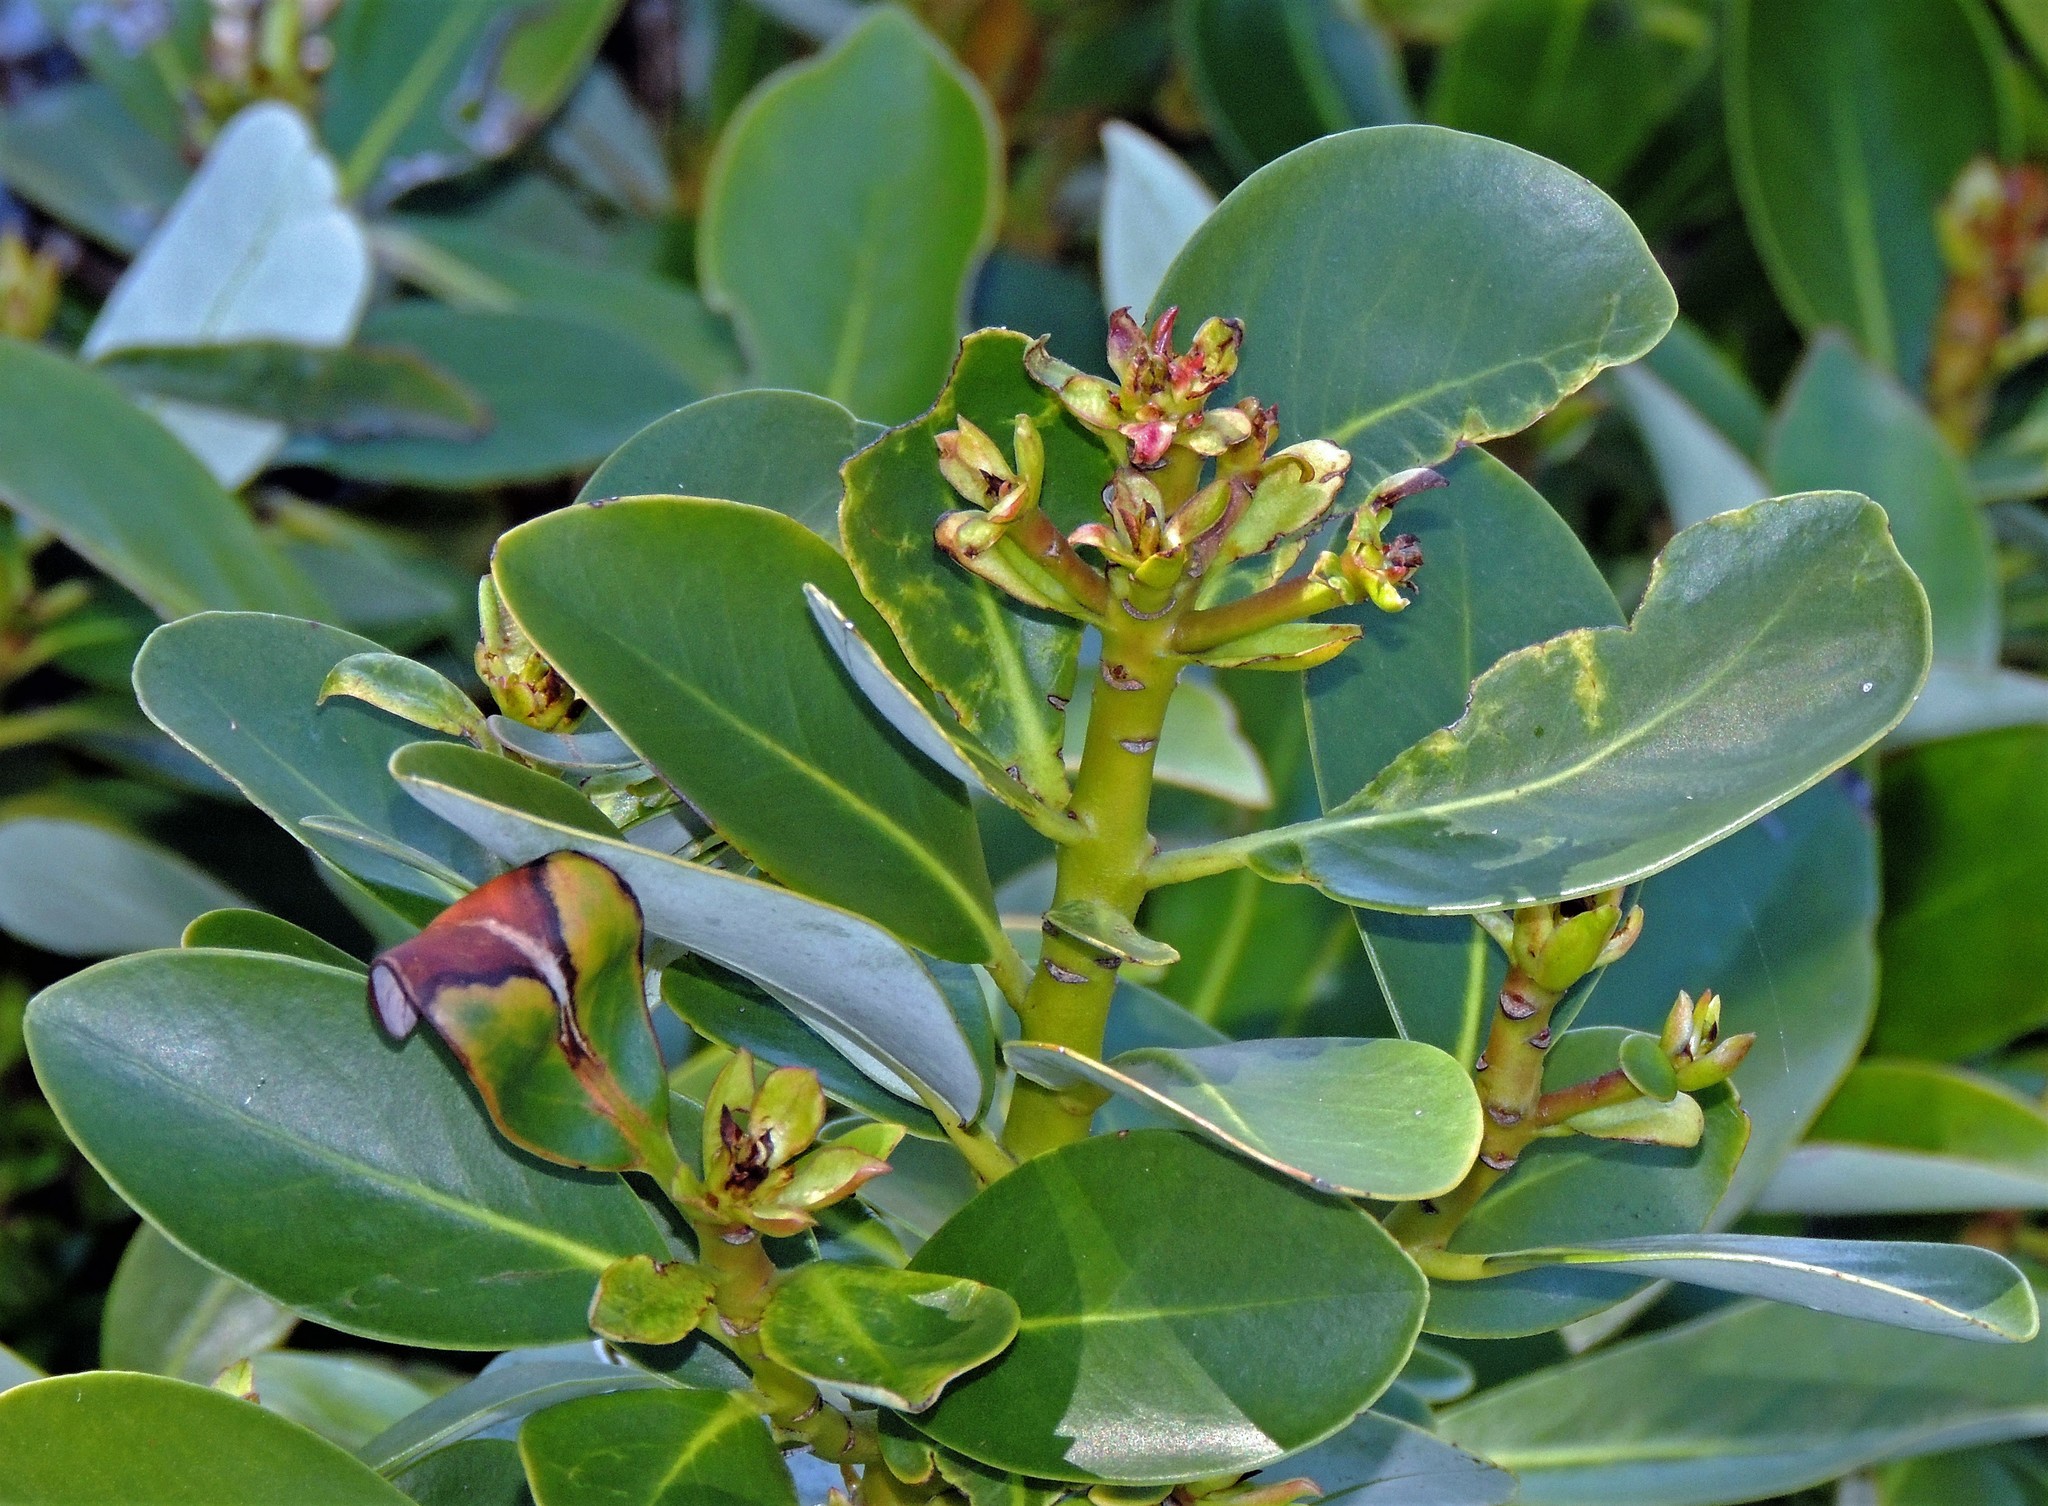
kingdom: Plantae
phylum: Tracheophyta
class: Magnoliopsida
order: Canellales
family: Winteraceae
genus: Drimys
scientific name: Drimys winteri
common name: Winter's-bark
